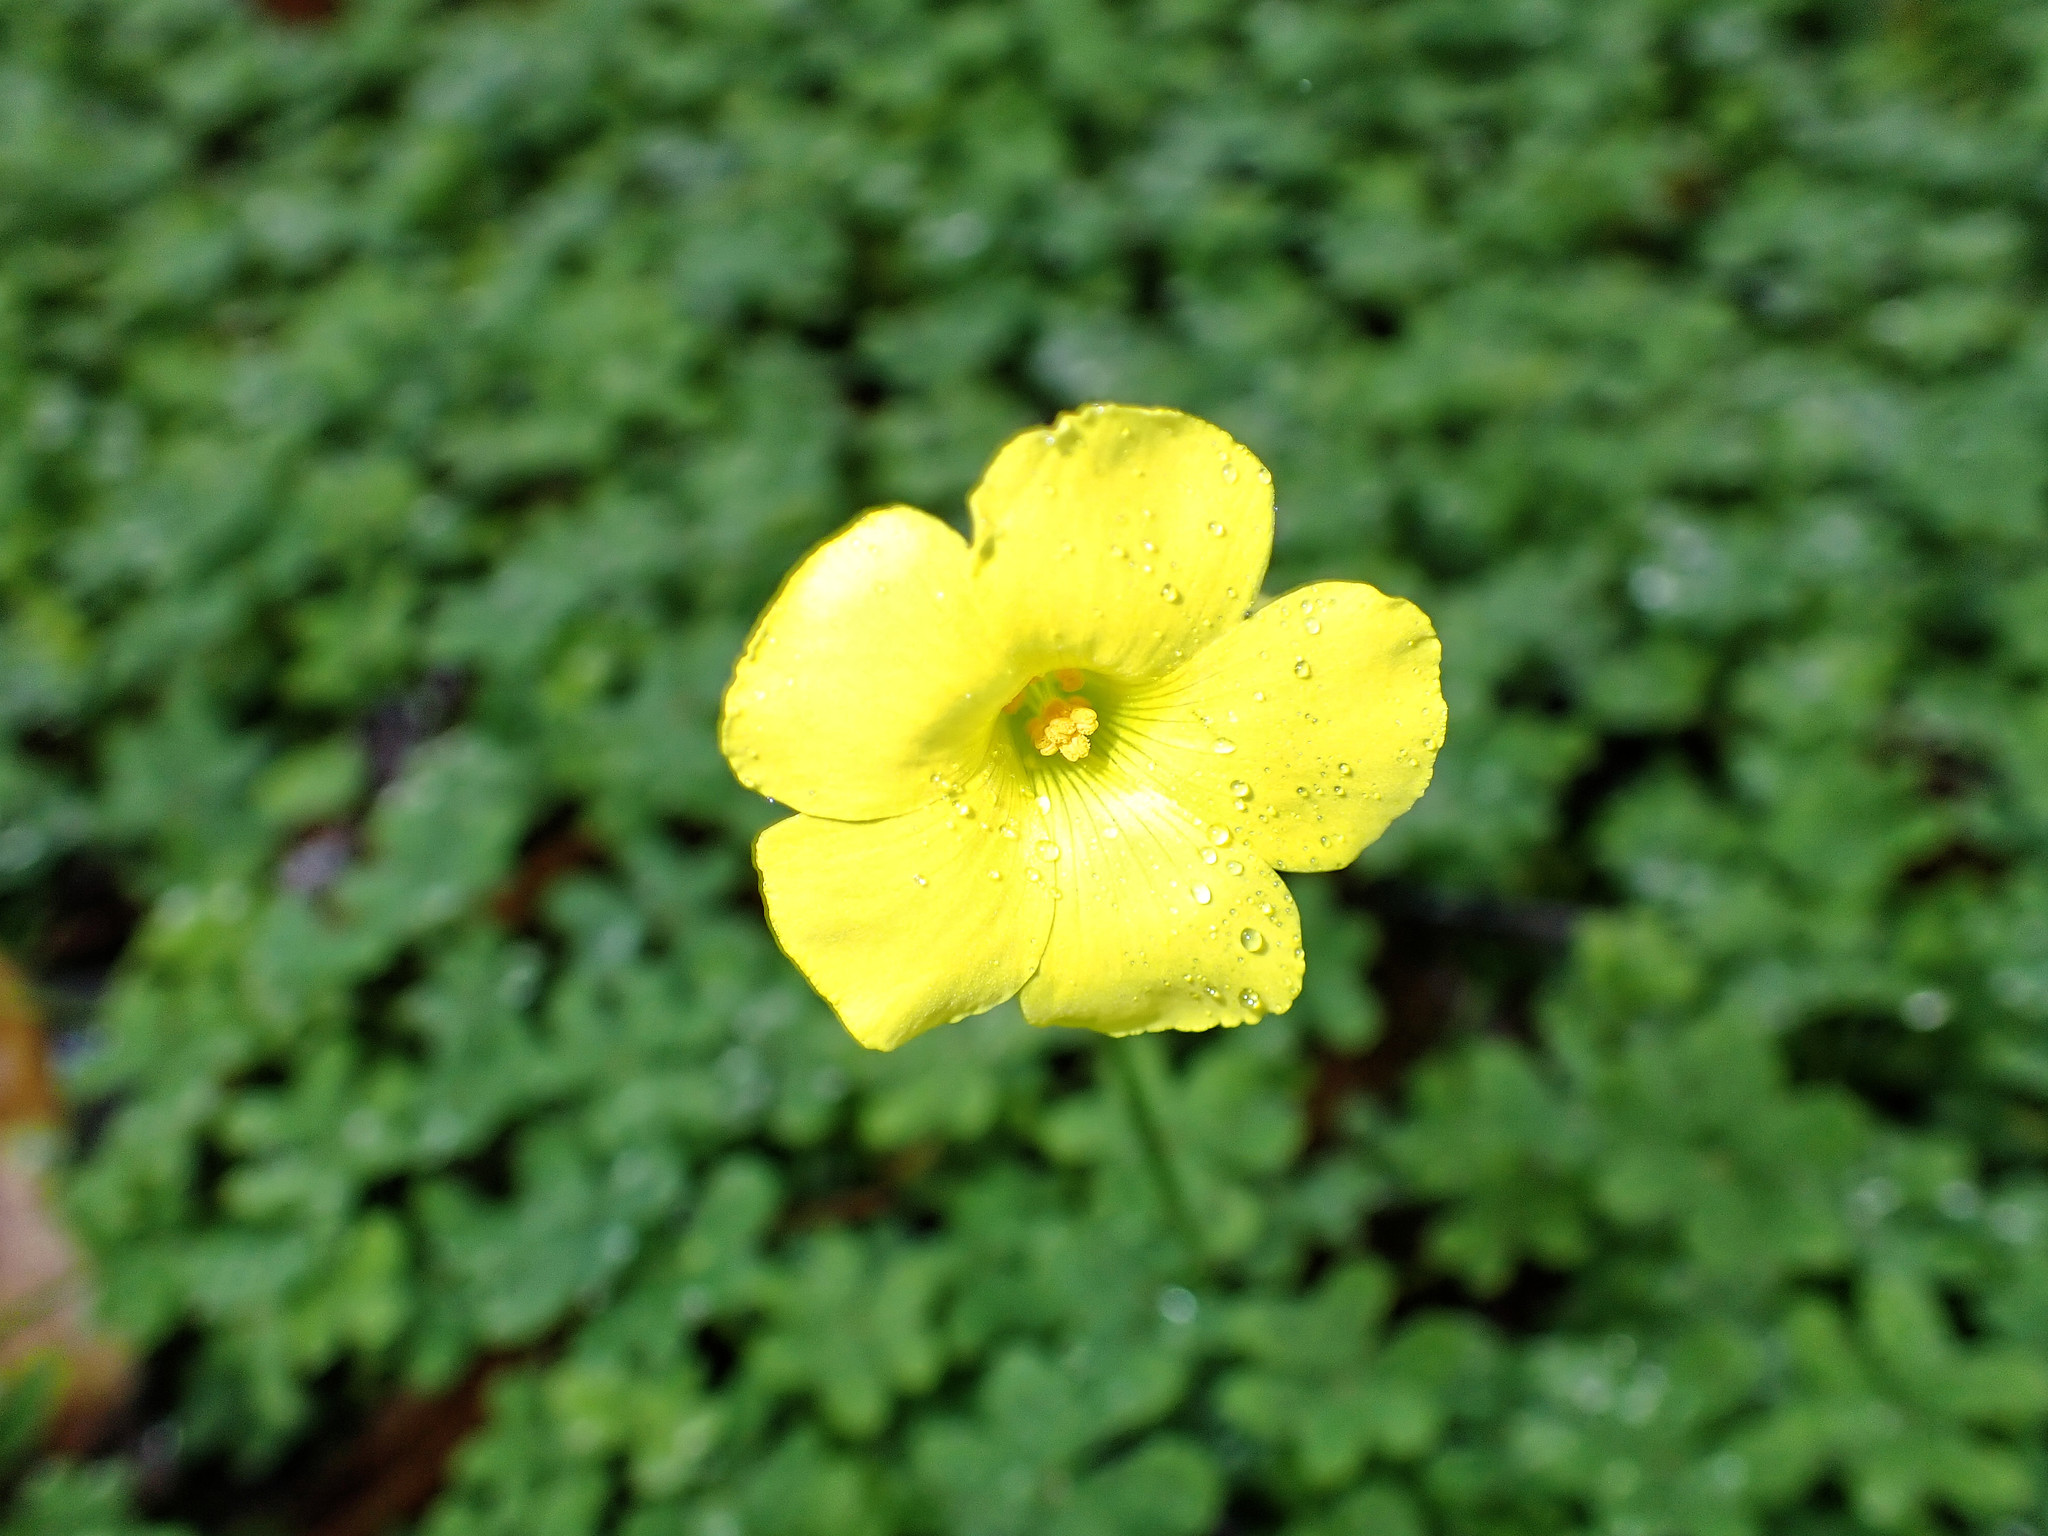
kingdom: Plantae
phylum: Tracheophyta
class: Magnoliopsida
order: Oxalidales
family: Oxalidaceae
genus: Oxalis
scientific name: Oxalis pes-caprae
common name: Bermuda-buttercup
